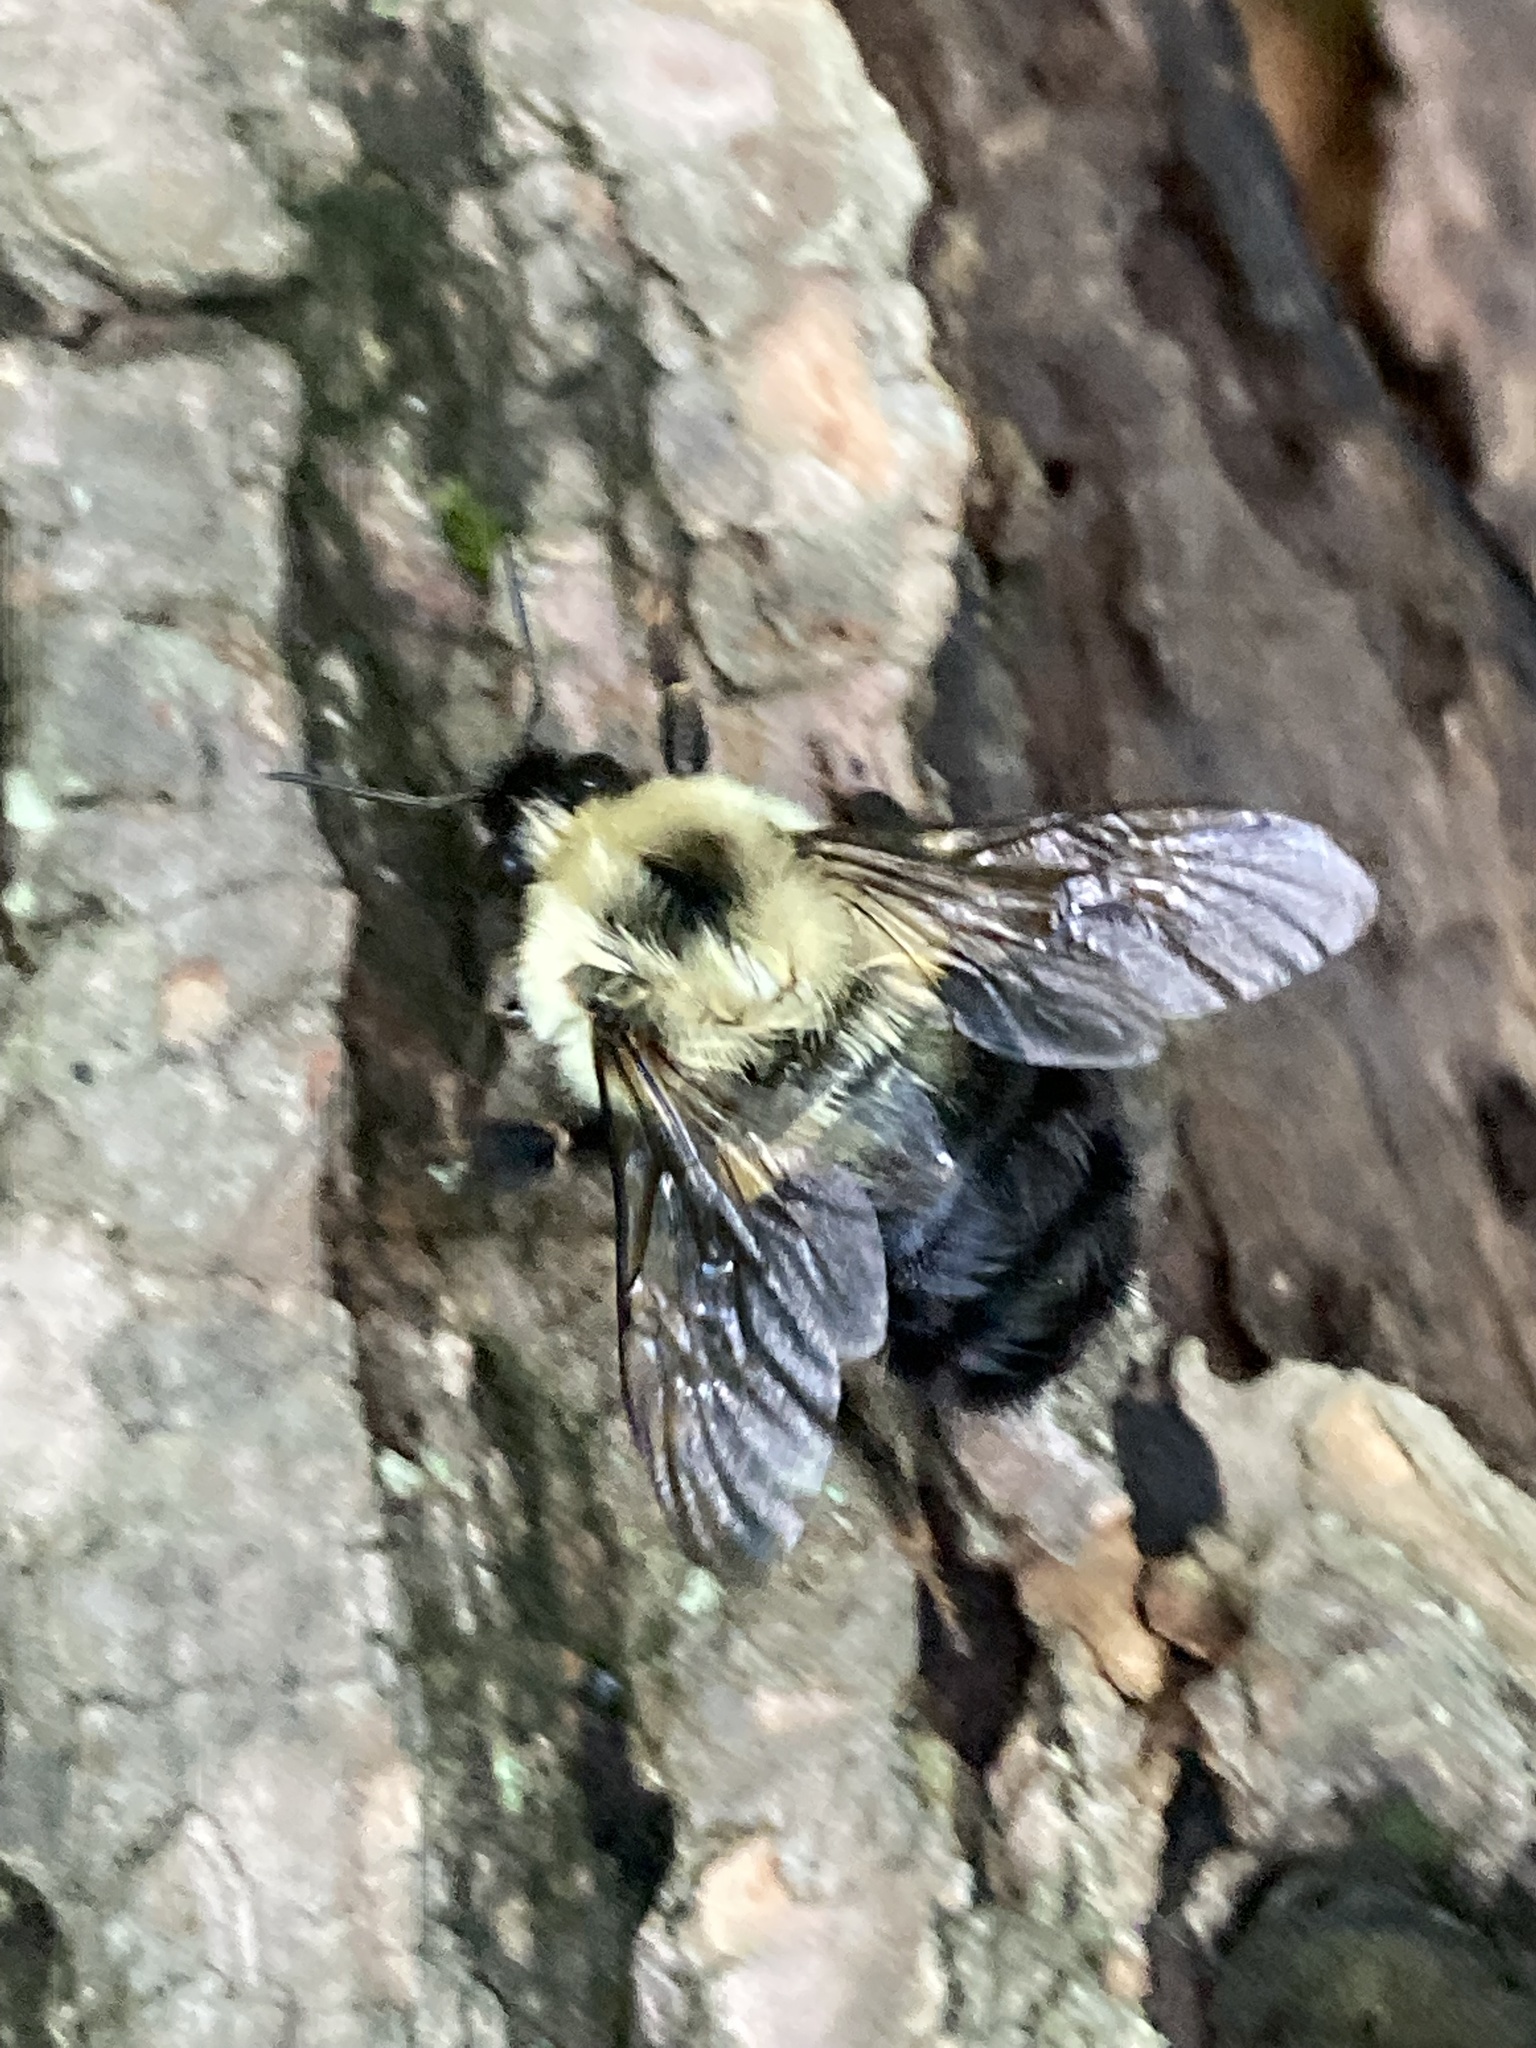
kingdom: Animalia
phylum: Arthropoda
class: Insecta
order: Hymenoptera
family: Apidae
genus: Bombus
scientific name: Bombus bimaculatus
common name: Two-spotted bumble bee
